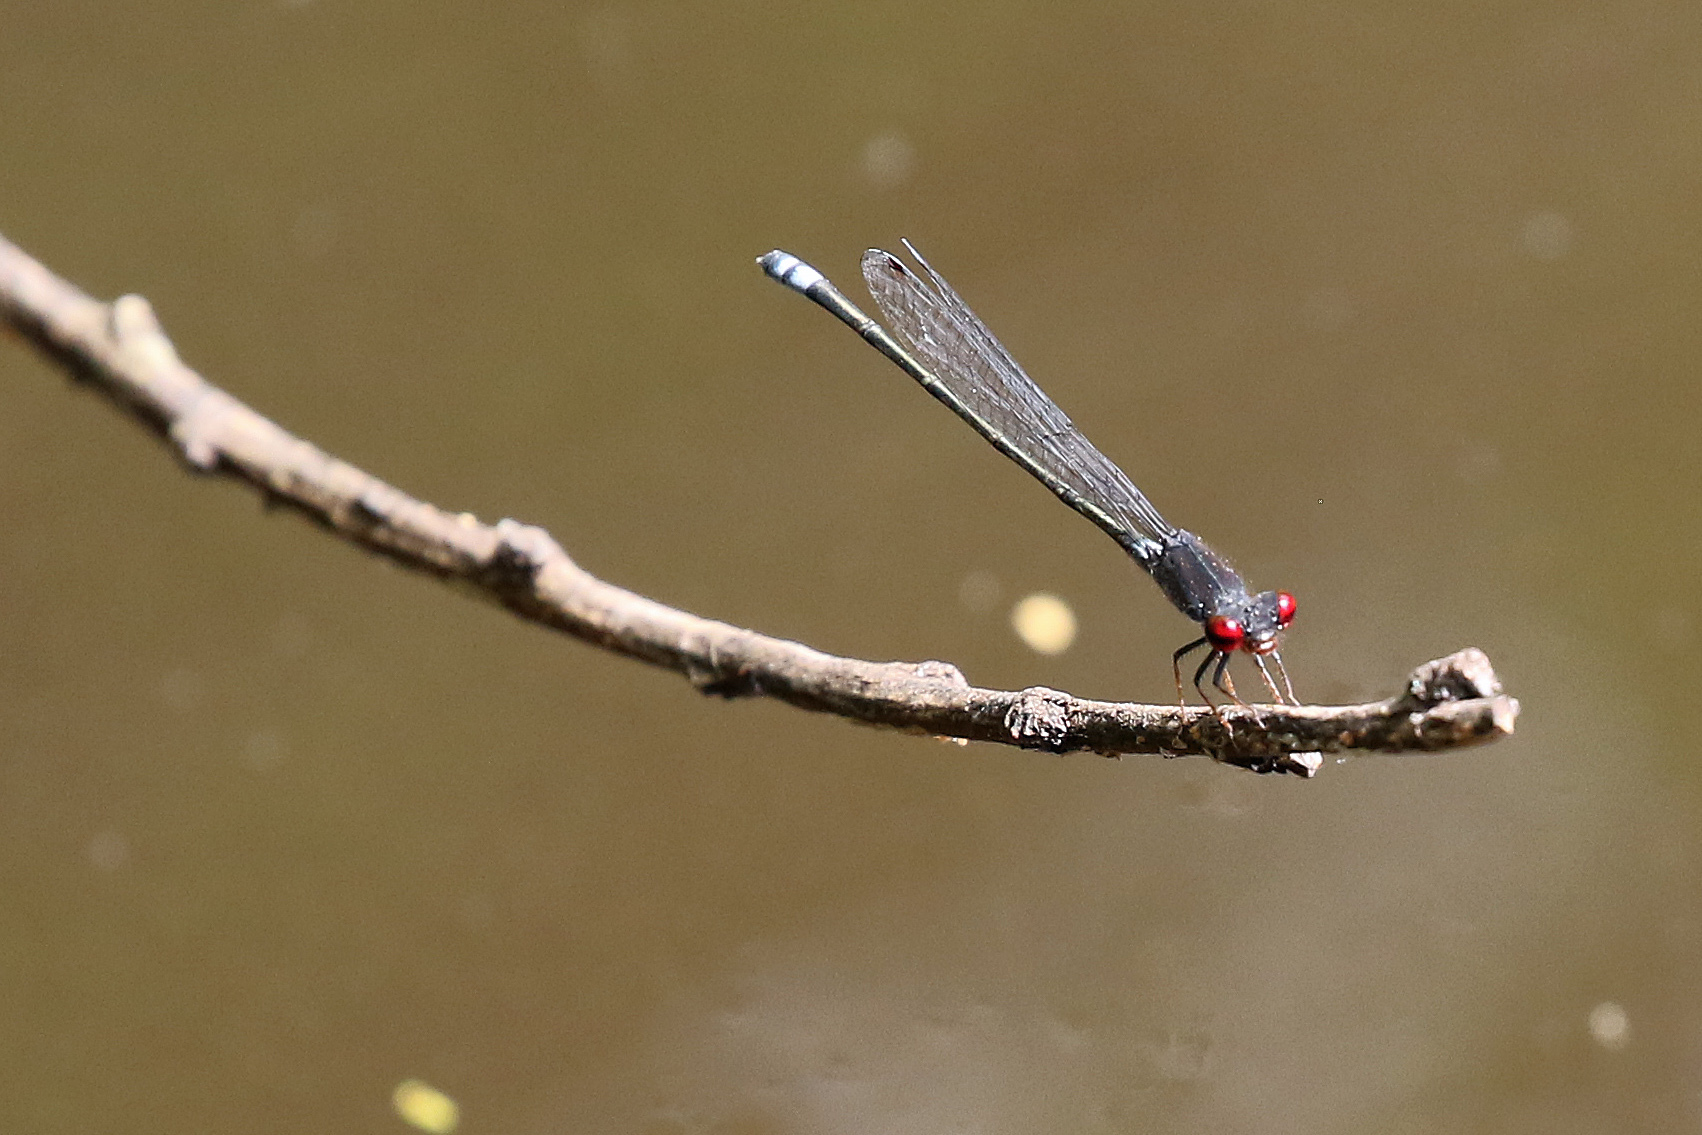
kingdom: Animalia
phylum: Arthropoda
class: Insecta
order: Odonata
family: Coenagrionidae
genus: Pseudagrion
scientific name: Pseudagrion sublacteum
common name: Cherry-eye sprite
